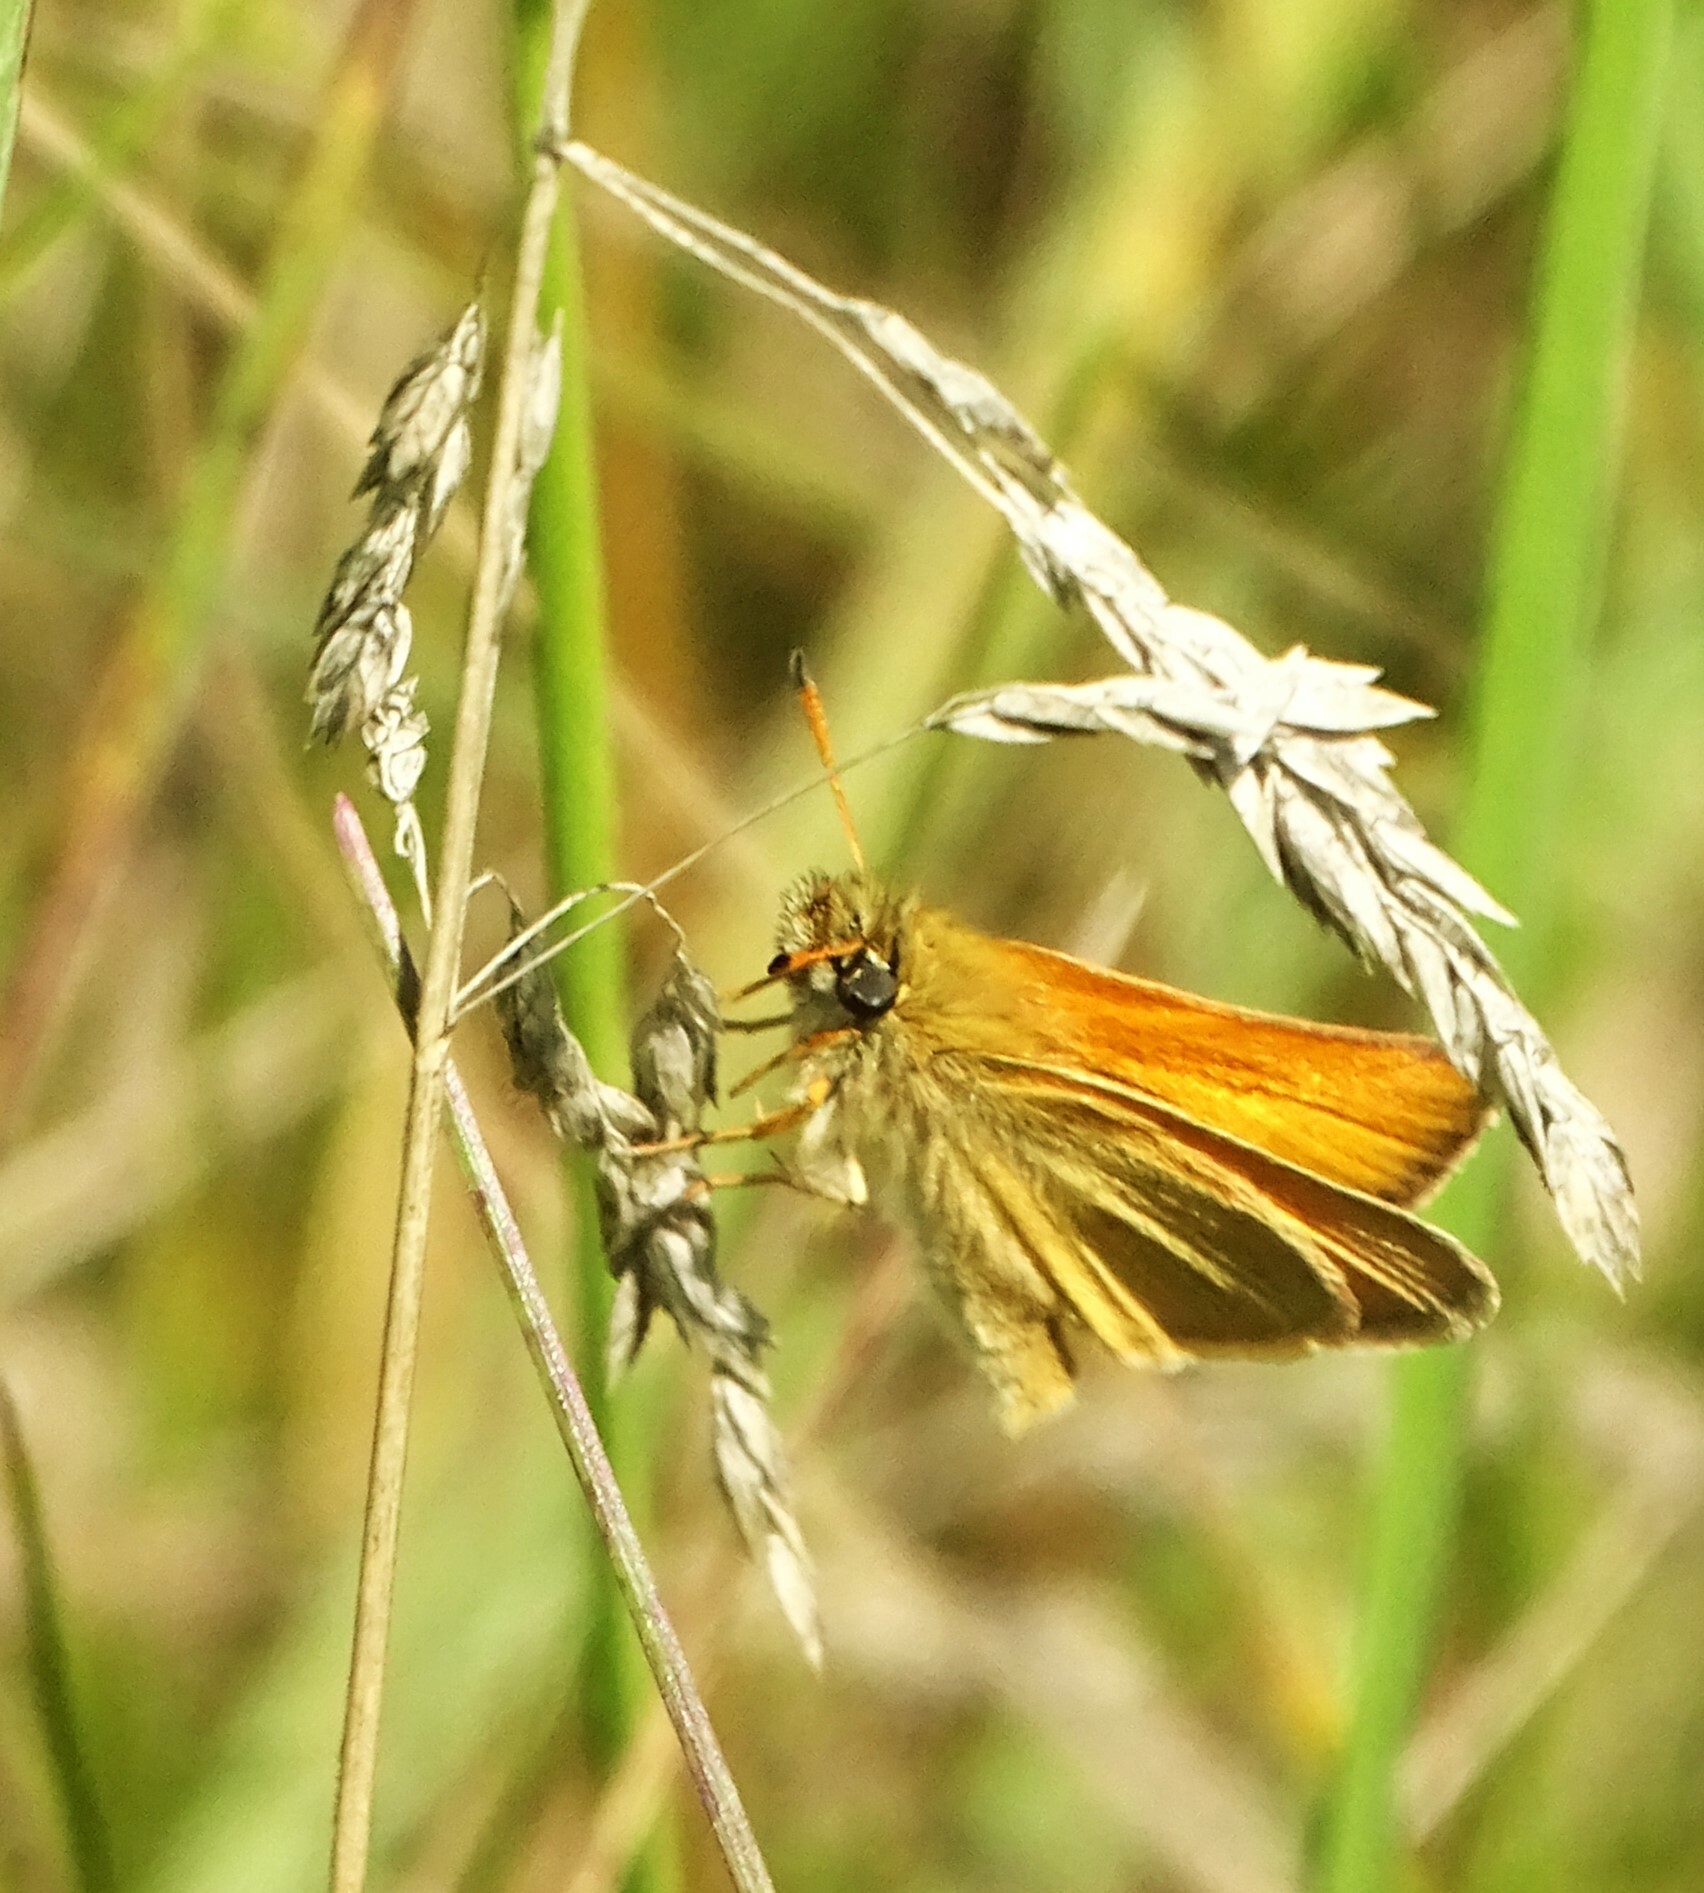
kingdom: Animalia
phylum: Arthropoda
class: Insecta
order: Lepidoptera
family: Hesperiidae
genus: Thymelicus
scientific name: Thymelicus lineola
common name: Essex skipper
